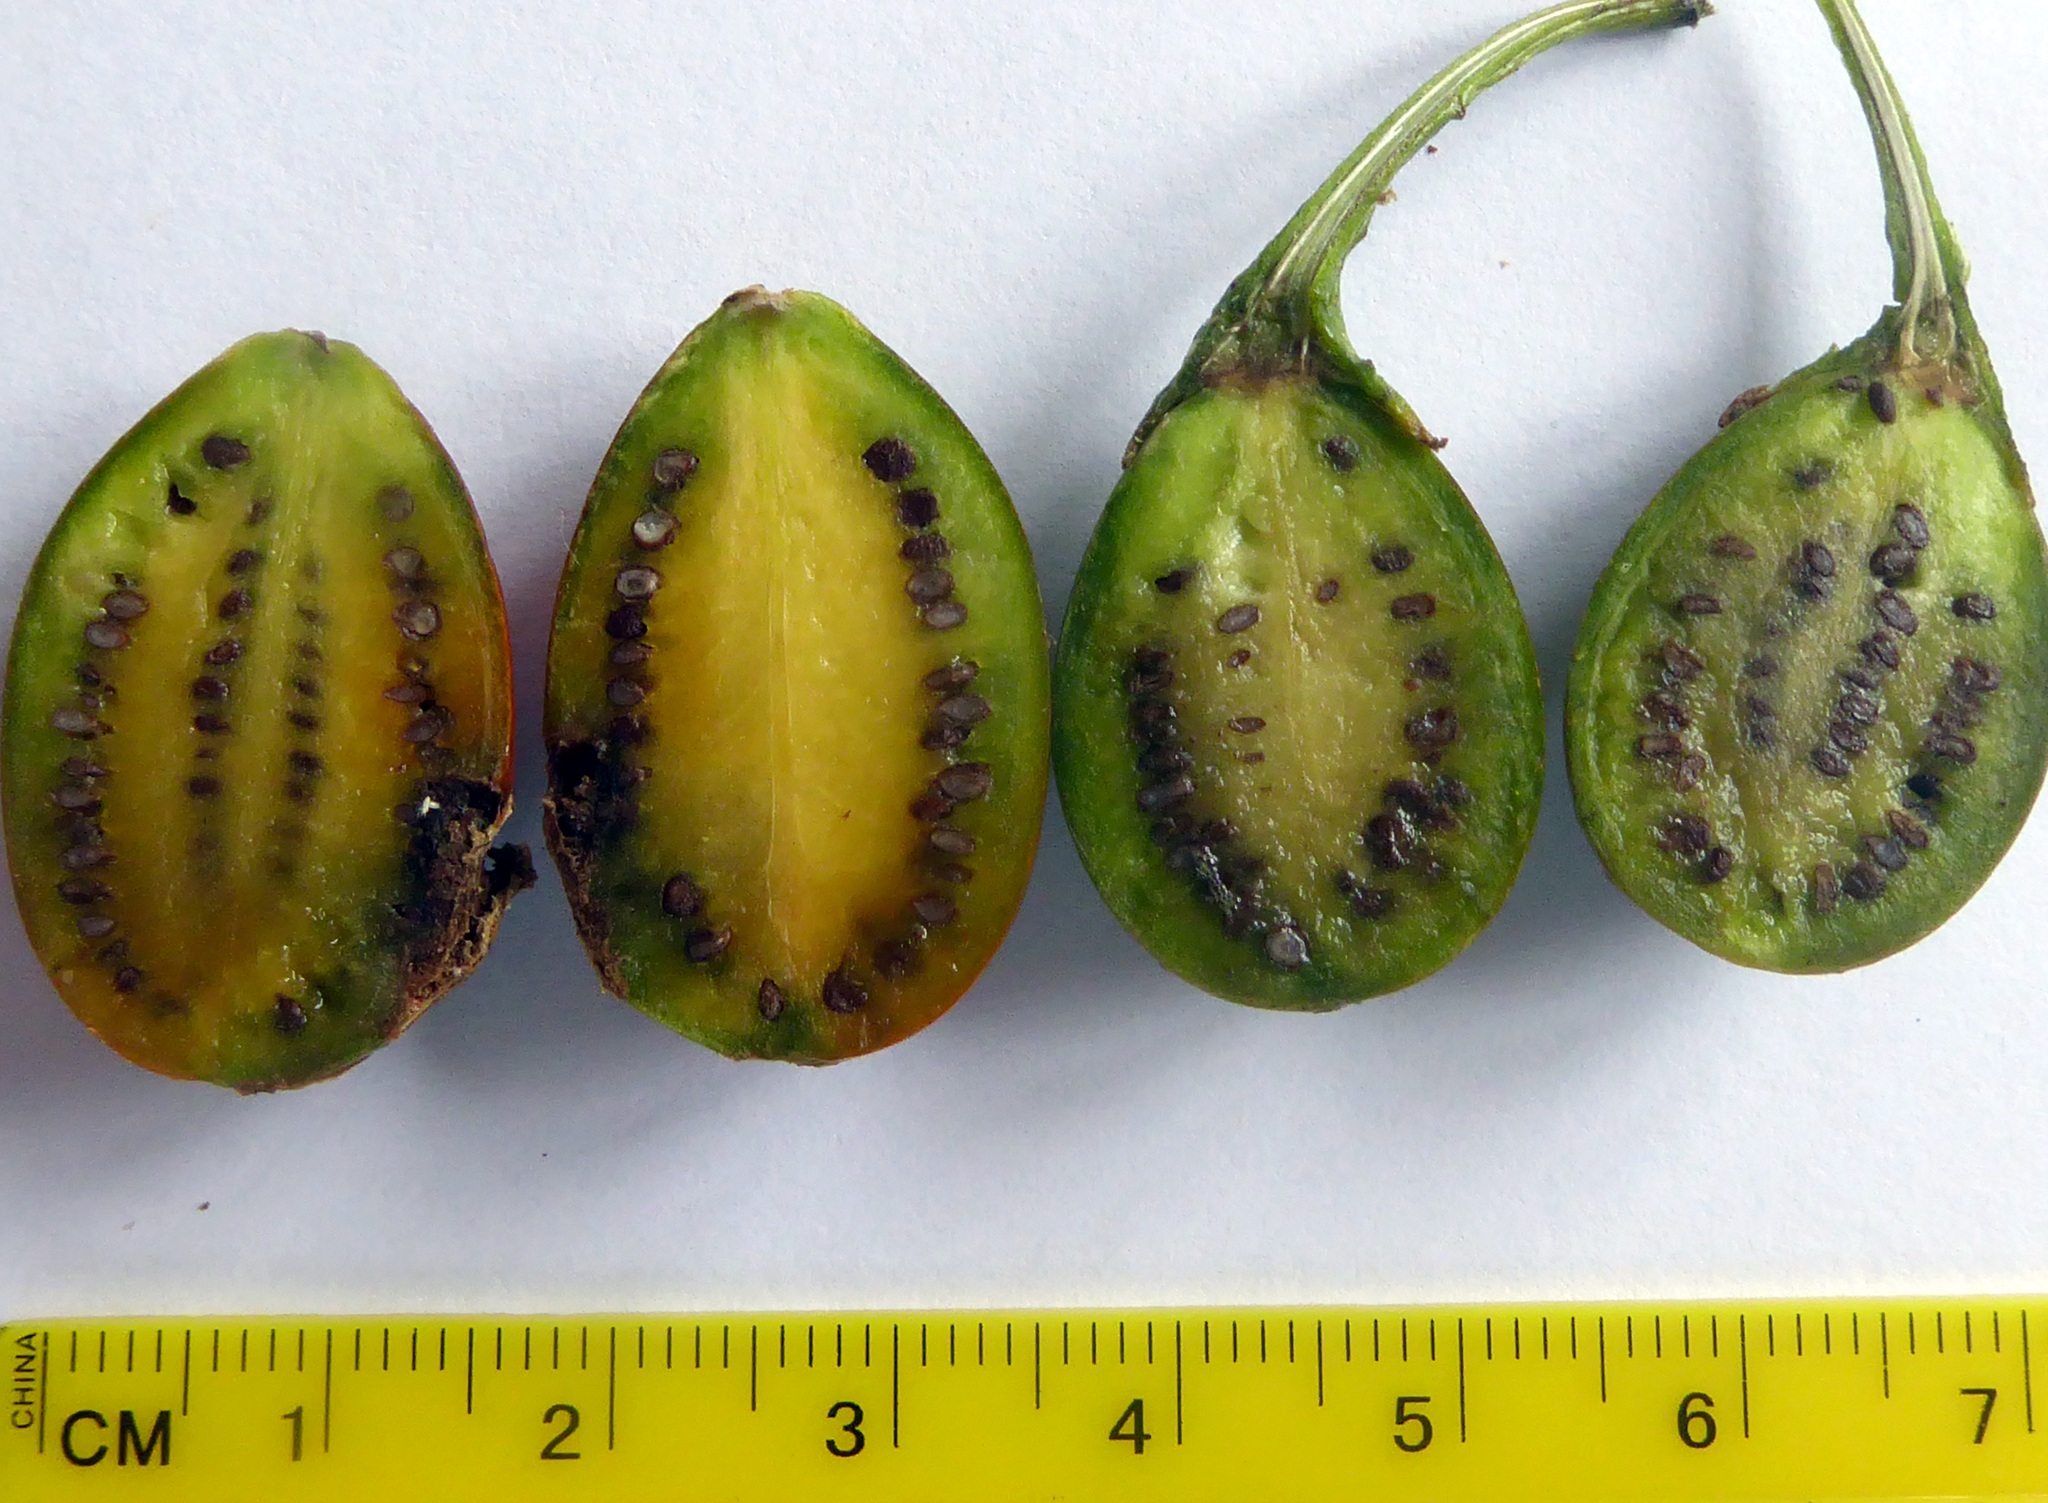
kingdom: Plantae
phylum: Tracheophyta
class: Magnoliopsida
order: Solanales
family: Solanaceae
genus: Solanum
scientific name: Solanum aviculare
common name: New zealand nightshade
